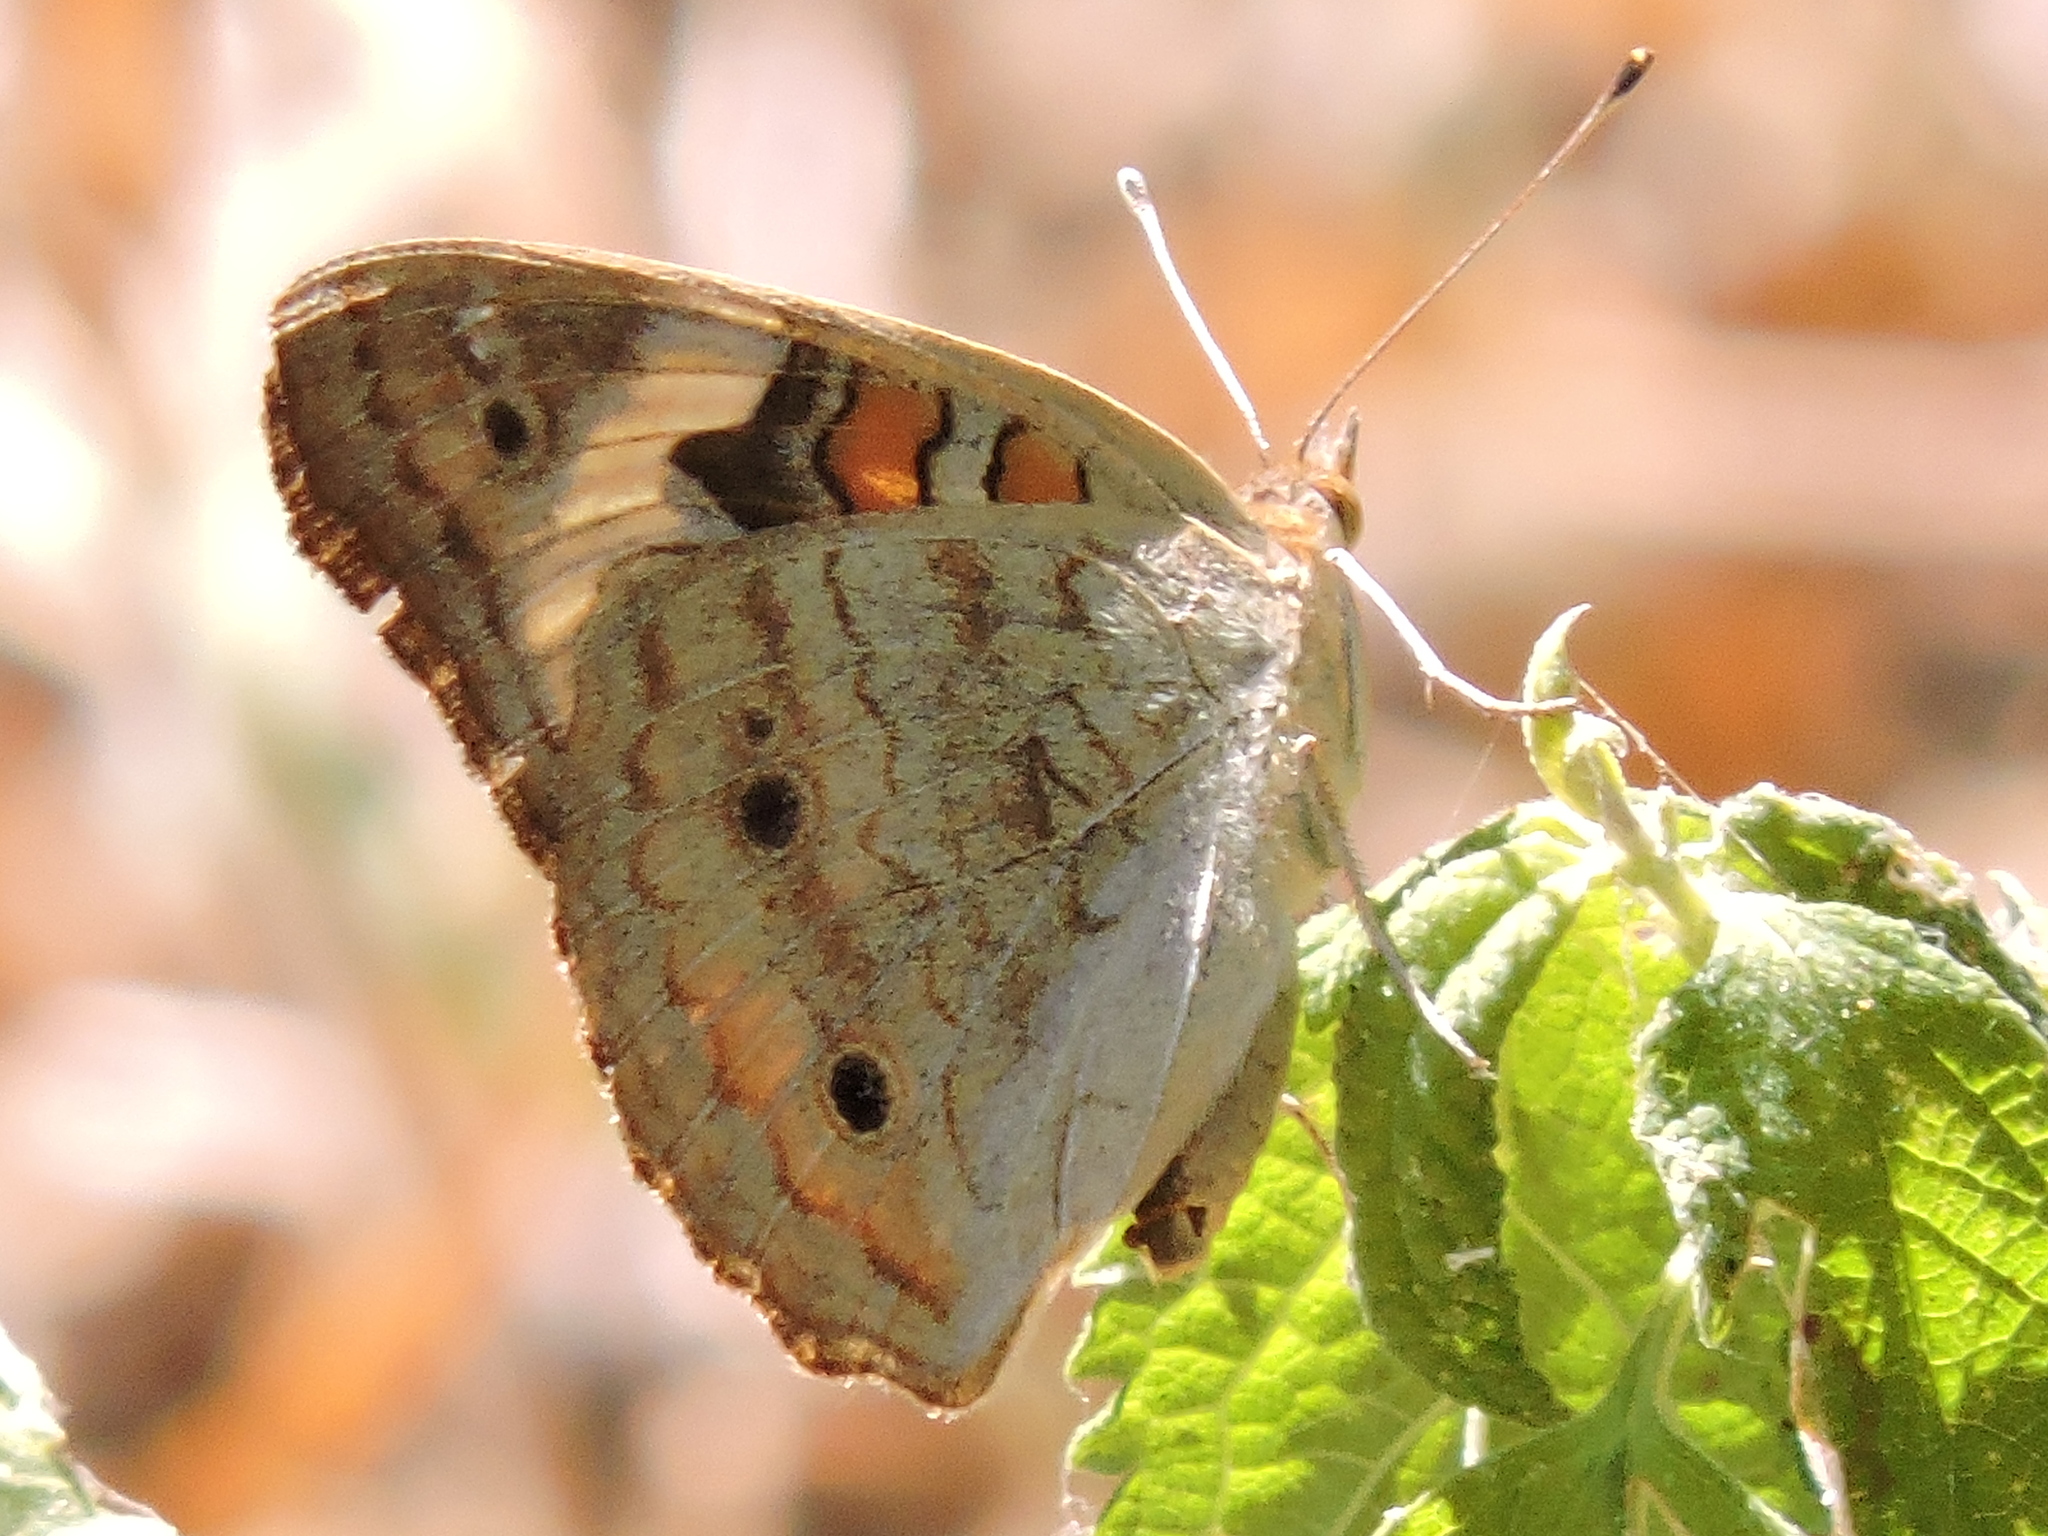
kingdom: Animalia
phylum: Arthropoda
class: Insecta
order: Lepidoptera
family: Nymphalidae
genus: Junonia
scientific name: Junonia coenia
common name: Common buckeye
